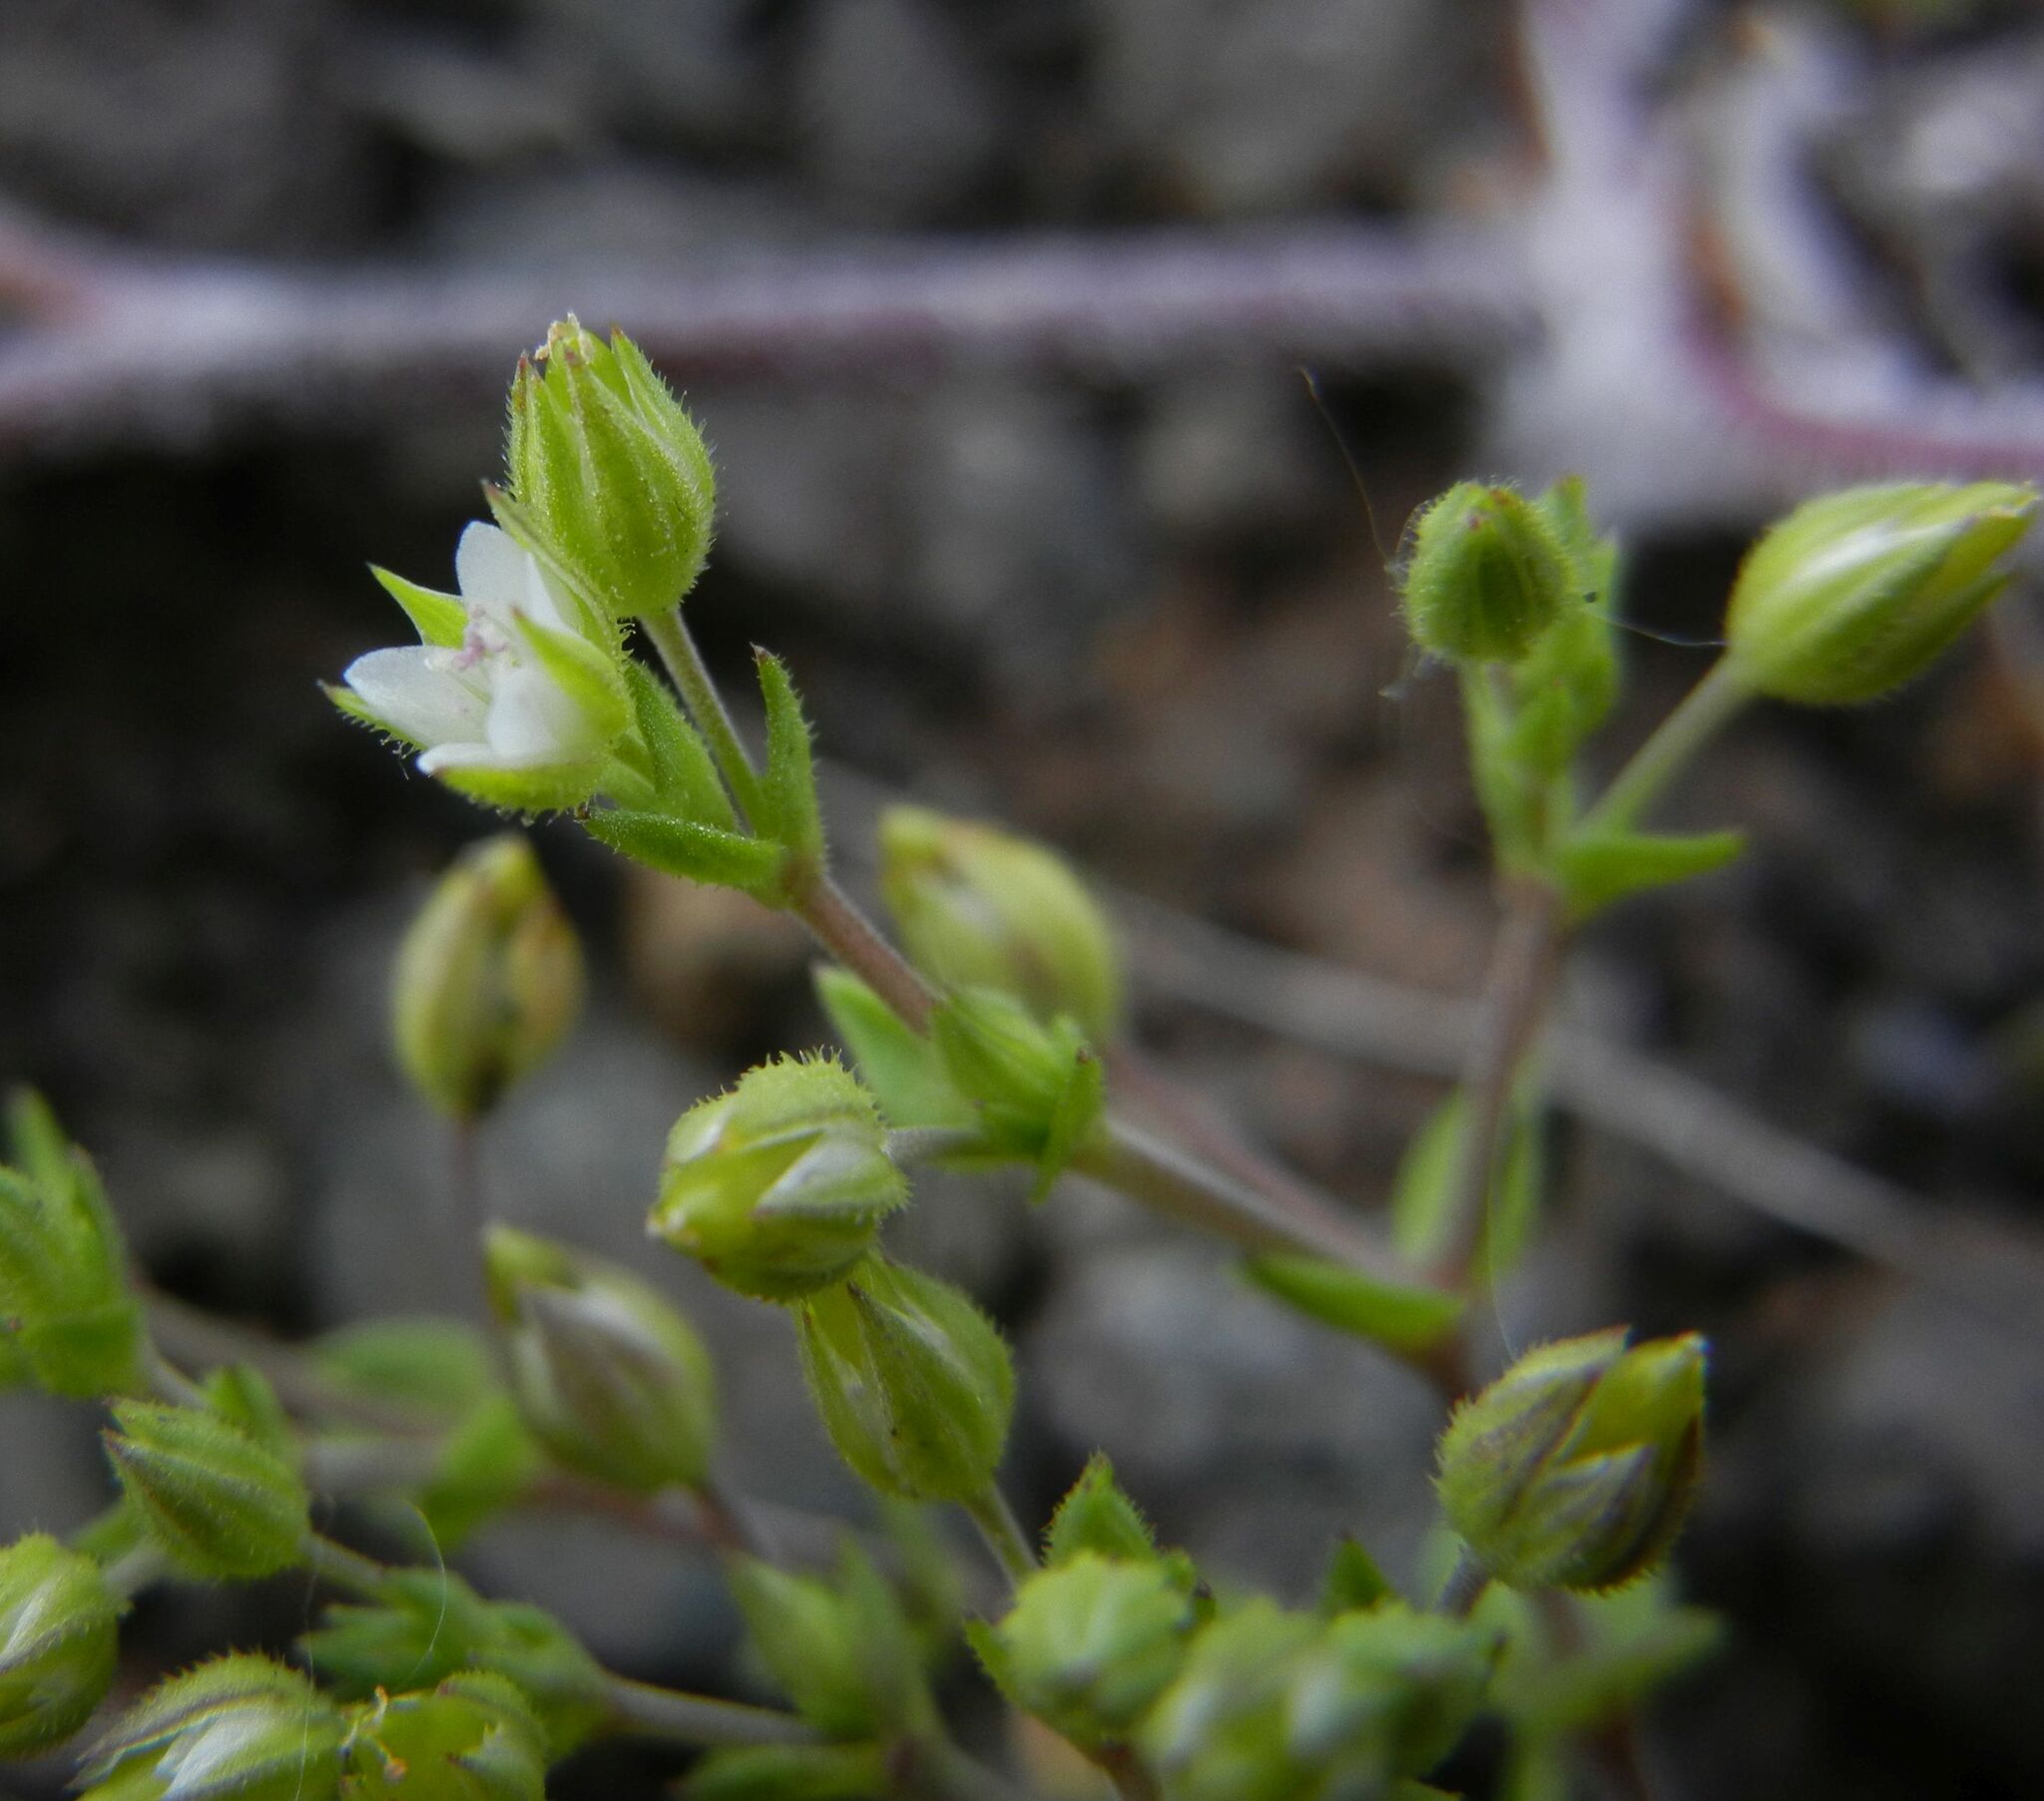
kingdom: Plantae
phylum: Tracheophyta
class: Magnoliopsida
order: Caryophyllales
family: Caryophyllaceae
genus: Arenaria
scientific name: Arenaria serpyllifolia
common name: Thyme-leaved sandwort
